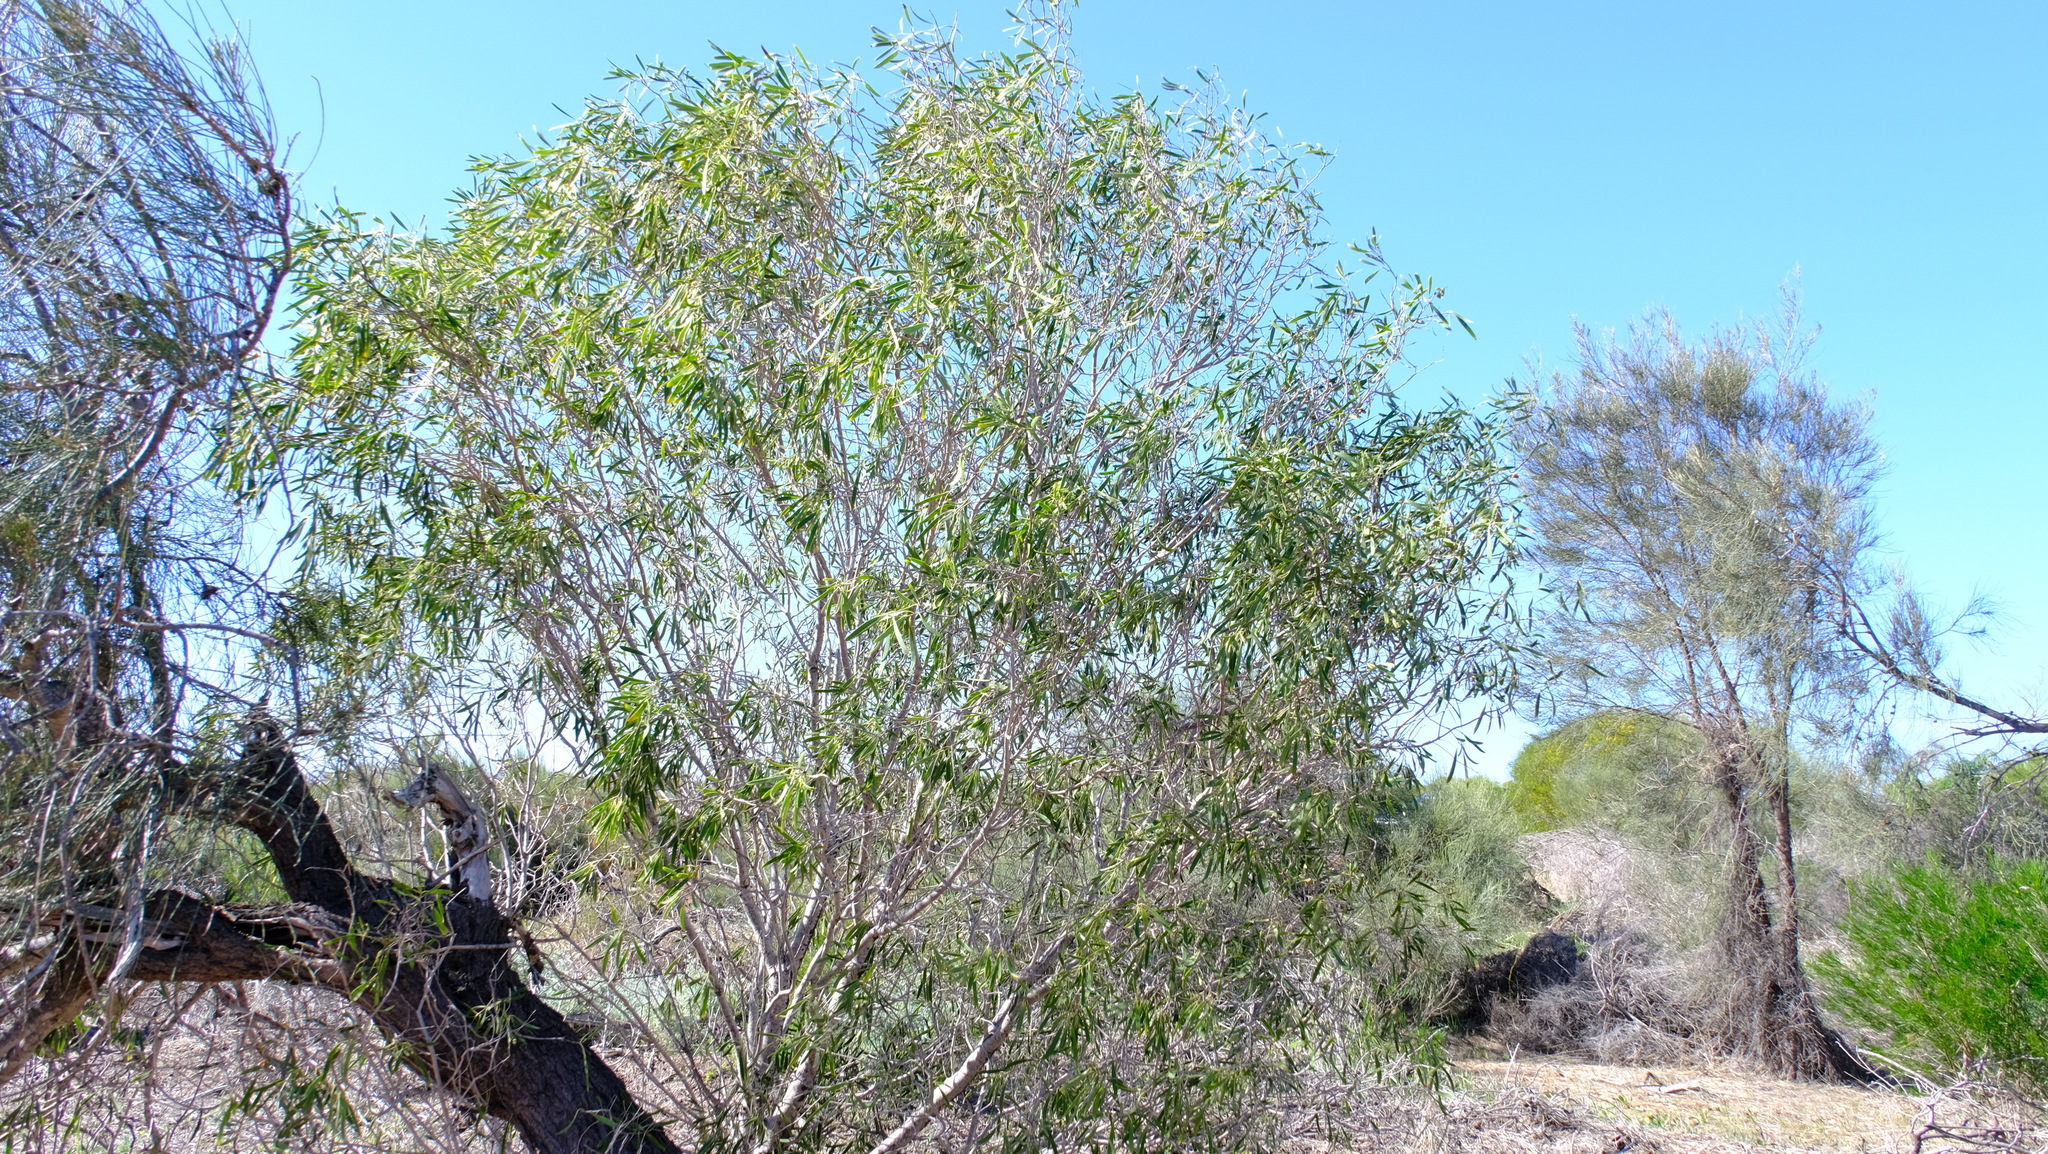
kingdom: Plantae
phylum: Tracheophyta
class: Magnoliopsida
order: Apiales
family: Pittosporaceae
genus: Pittosporum
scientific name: Pittosporum angustifolium
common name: Weeping pittosporum
